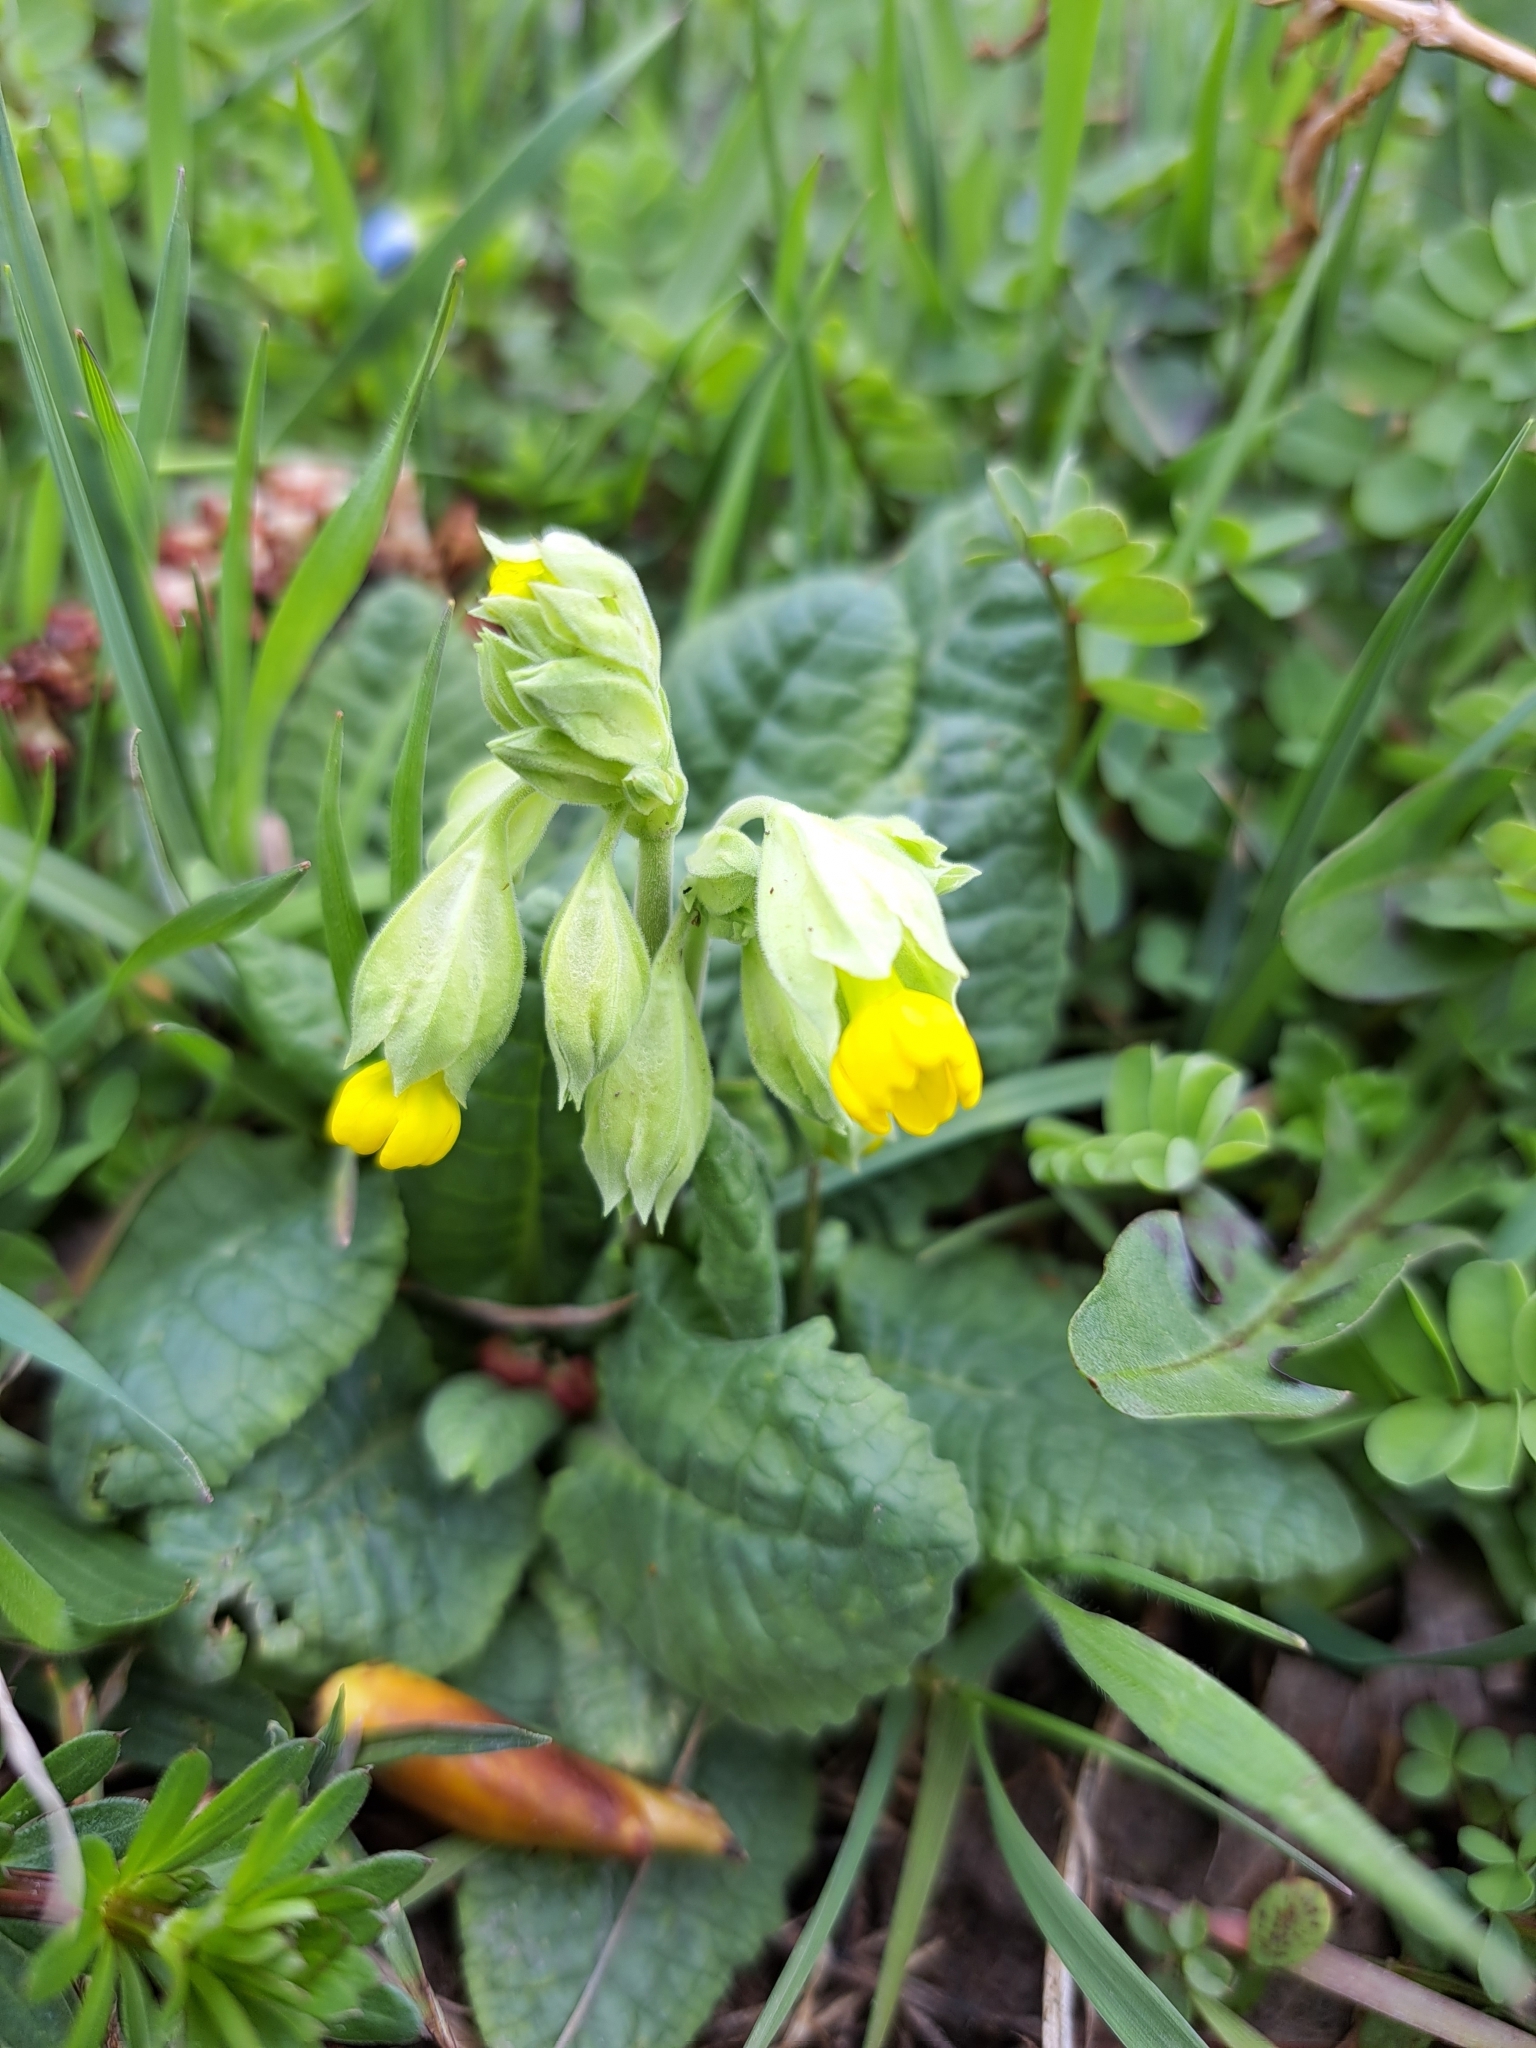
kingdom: Plantae
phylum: Tracheophyta
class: Magnoliopsida
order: Ericales
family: Primulaceae
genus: Primula
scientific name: Primula veris
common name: Cowslip
